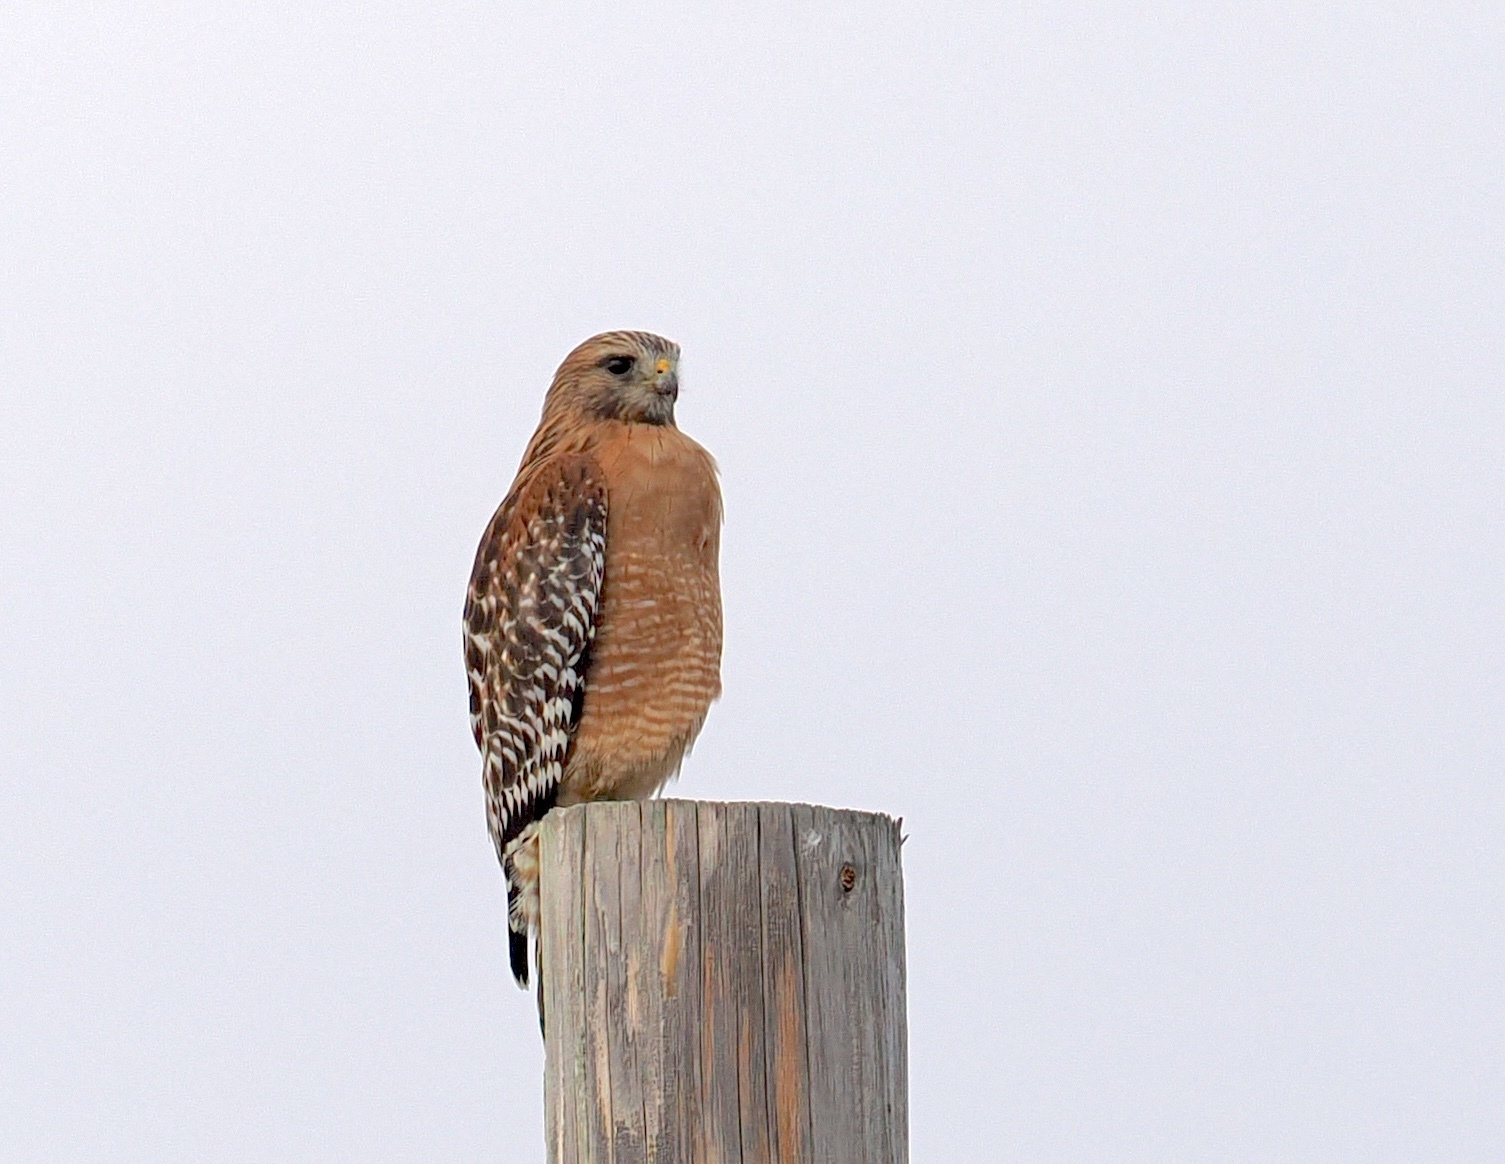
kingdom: Animalia
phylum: Chordata
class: Aves
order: Accipitriformes
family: Accipitridae
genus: Buteo
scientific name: Buteo lineatus
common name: Red-shouldered hawk
